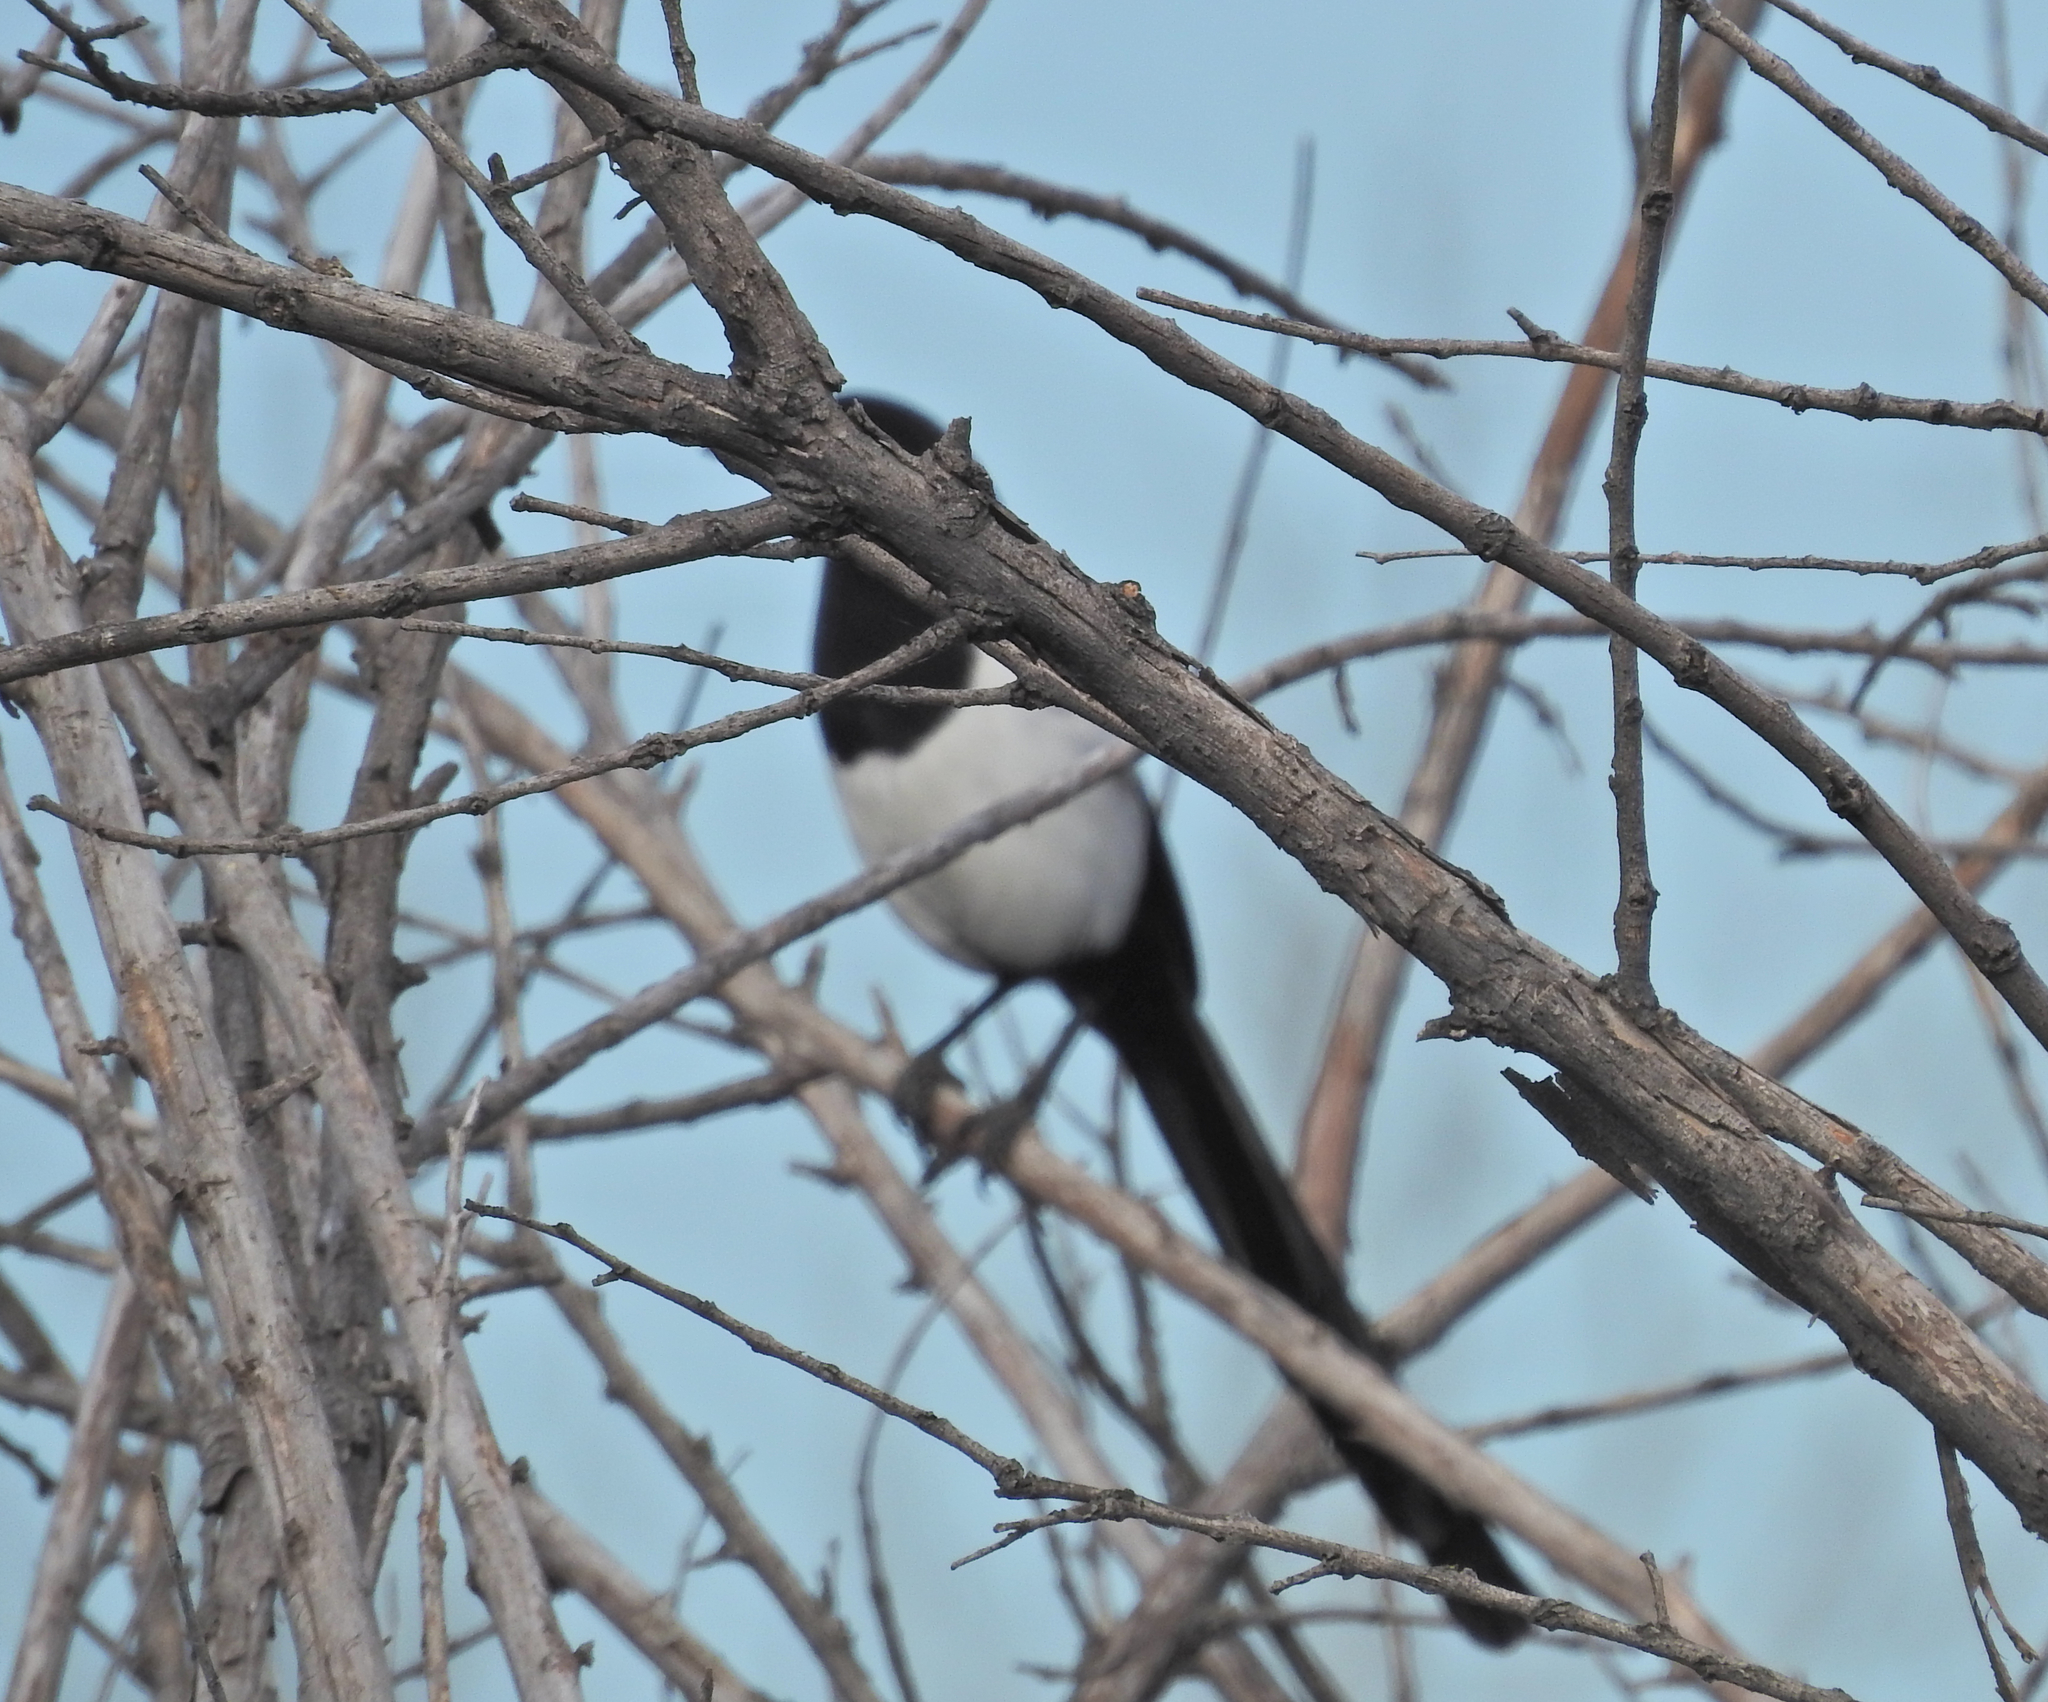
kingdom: Animalia
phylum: Chordata
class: Aves
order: Passeriformes
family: Corvidae
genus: Pica
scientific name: Pica pica
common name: Eurasian magpie
